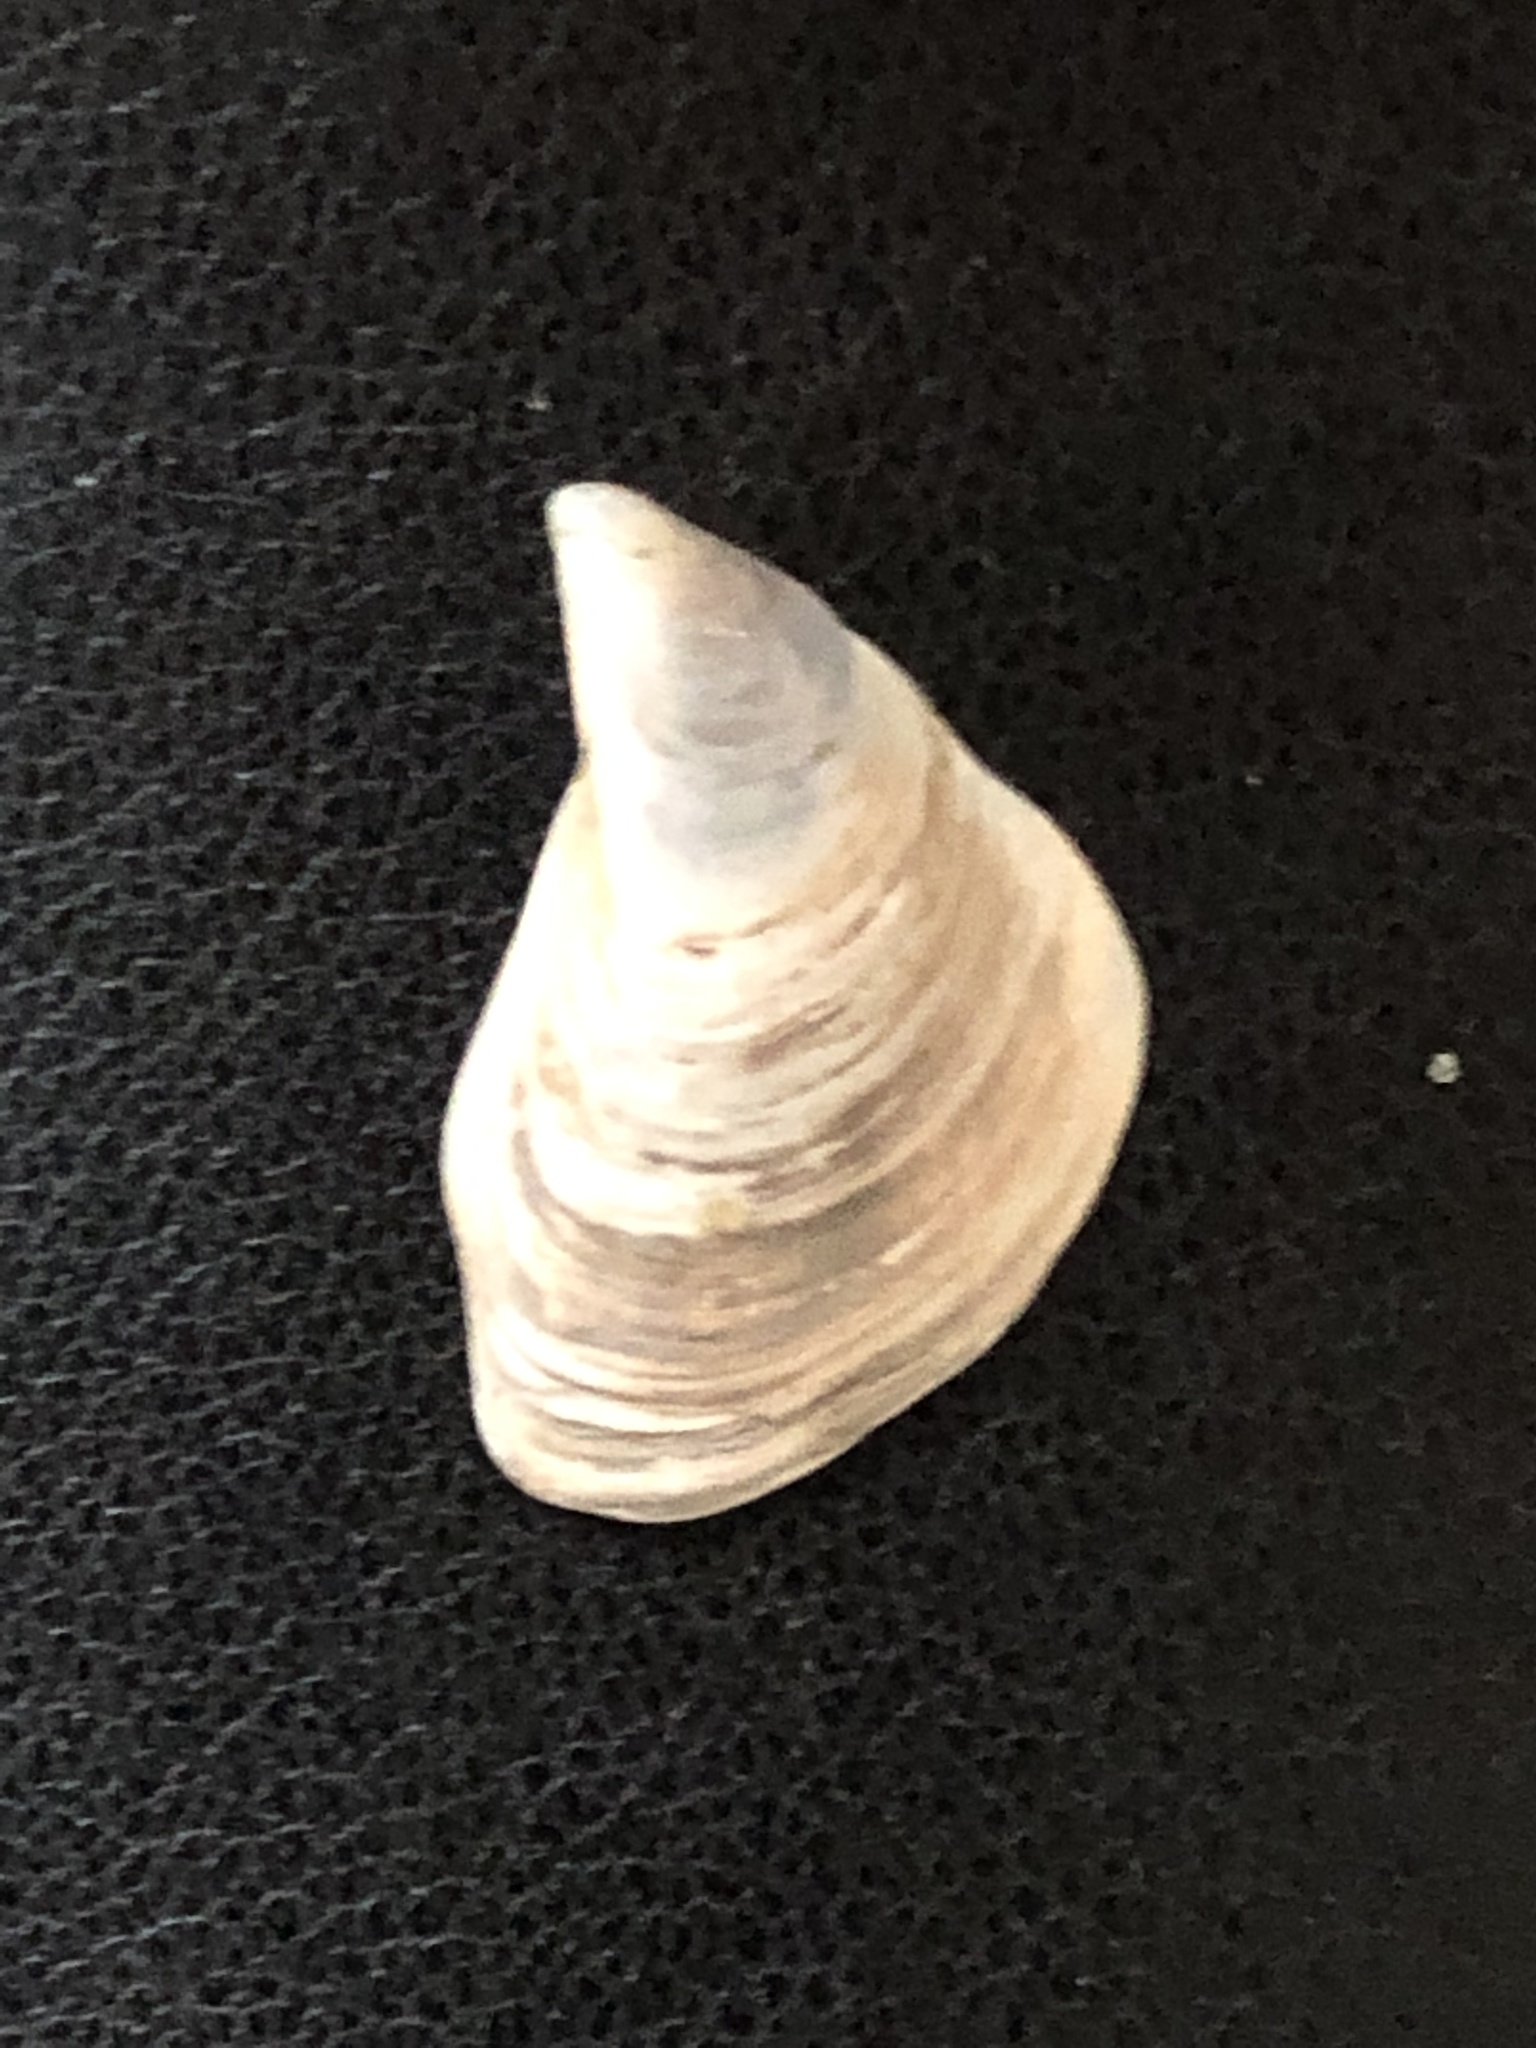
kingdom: Animalia
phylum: Mollusca
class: Bivalvia
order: Myida
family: Dreissenidae
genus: Dreissena
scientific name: Dreissena bugensis
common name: Quagga mussel
